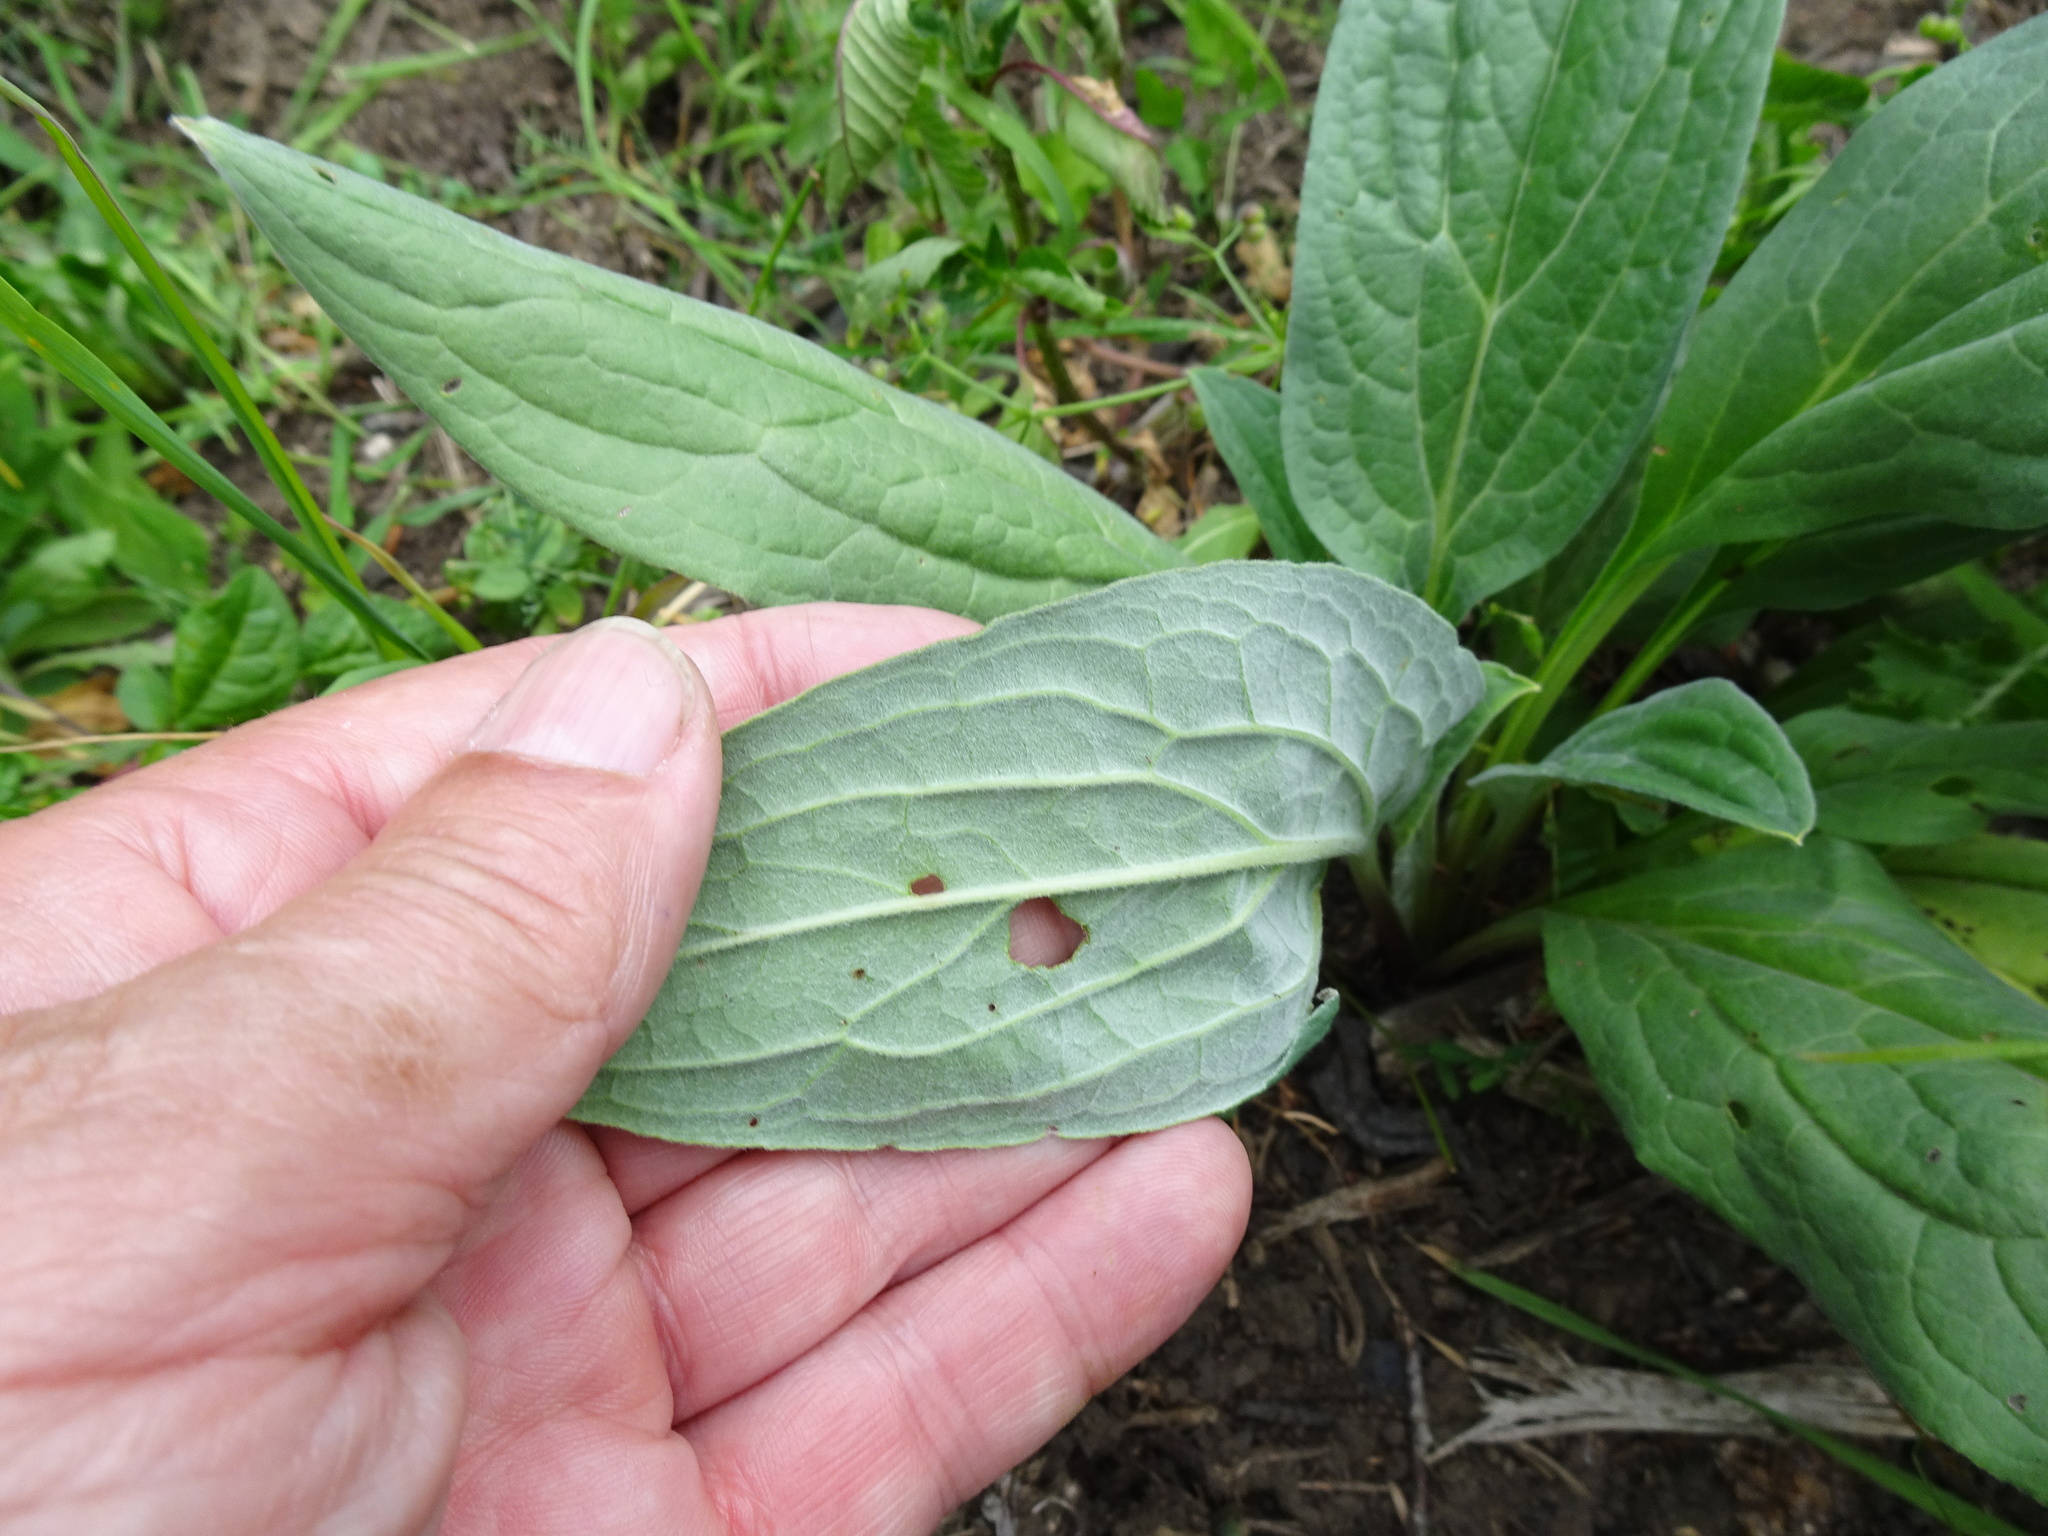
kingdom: Plantae
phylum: Tracheophyta
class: Magnoliopsida
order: Boraginales
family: Boraginaceae
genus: Cynoglossum
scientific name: Cynoglossum officinale
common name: Hound's-tongue
